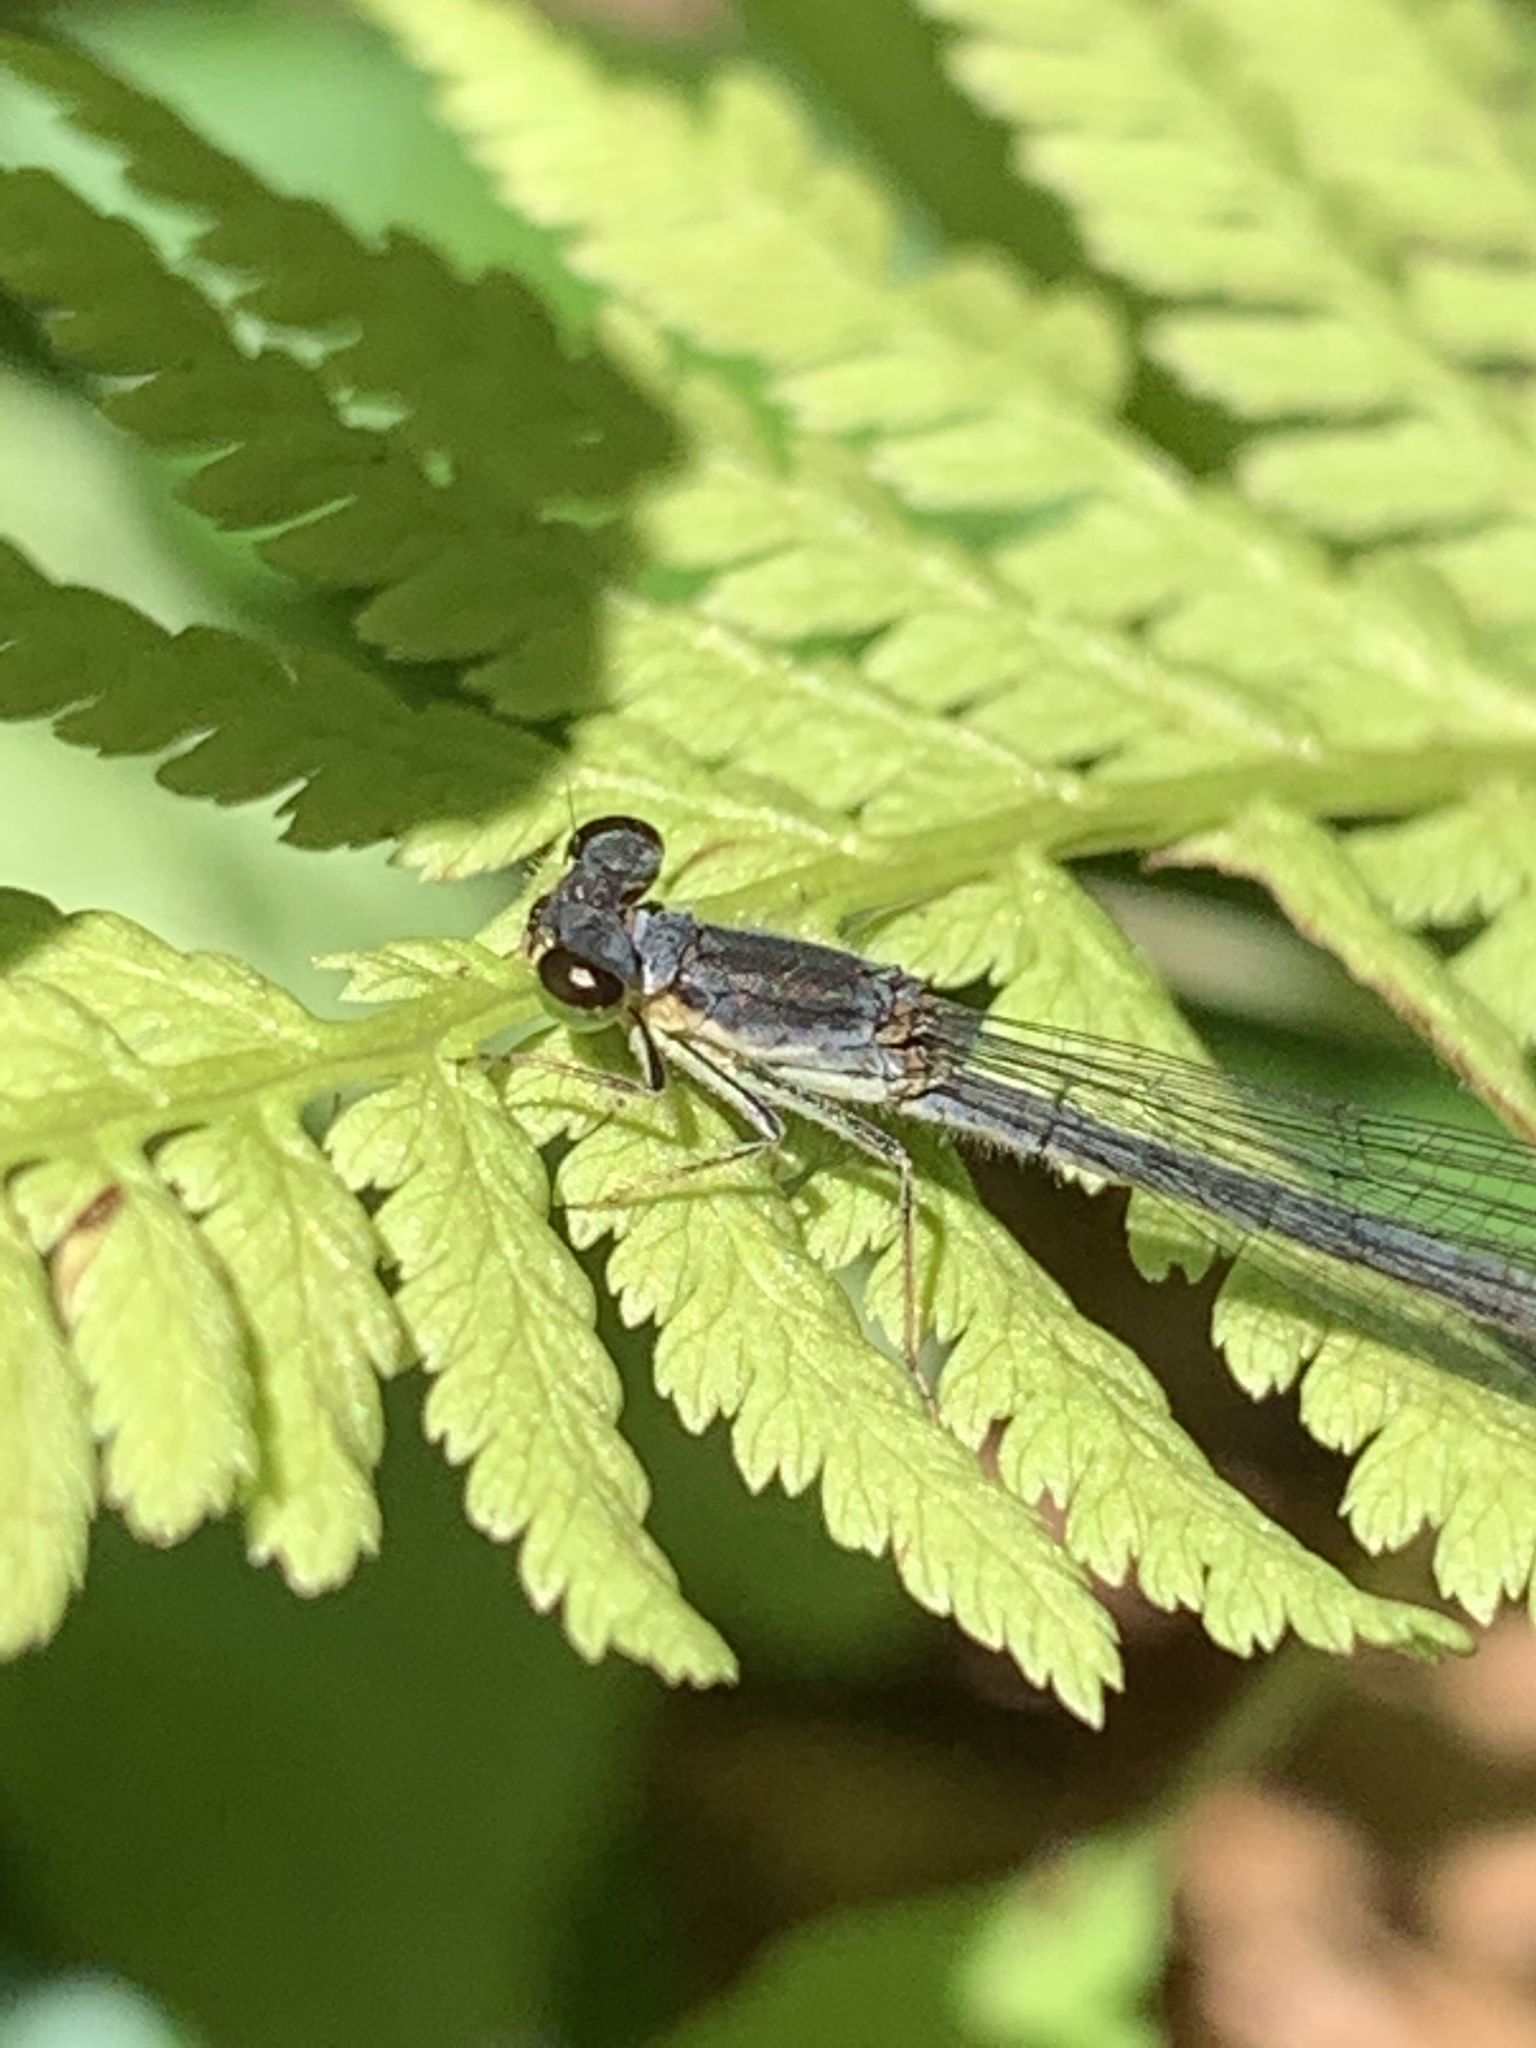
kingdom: Animalia
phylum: Arthropoda
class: Insecta
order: Odonata
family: Coenagrionidae
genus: Ischnura
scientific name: Ischnura verticalis
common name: Eastern forktail
